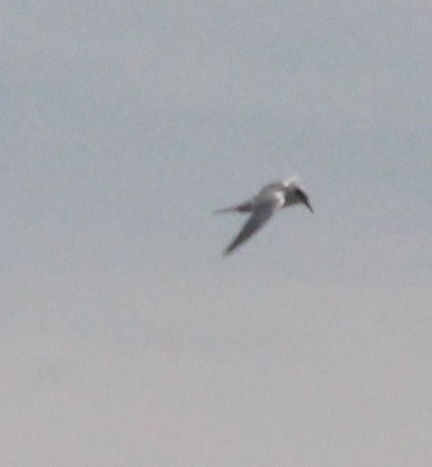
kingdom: Animalia
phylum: Chordata
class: Aves
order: Charadriiformes
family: Laridae
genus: Sterna
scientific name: Sterna forsteri
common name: Forster's tern
